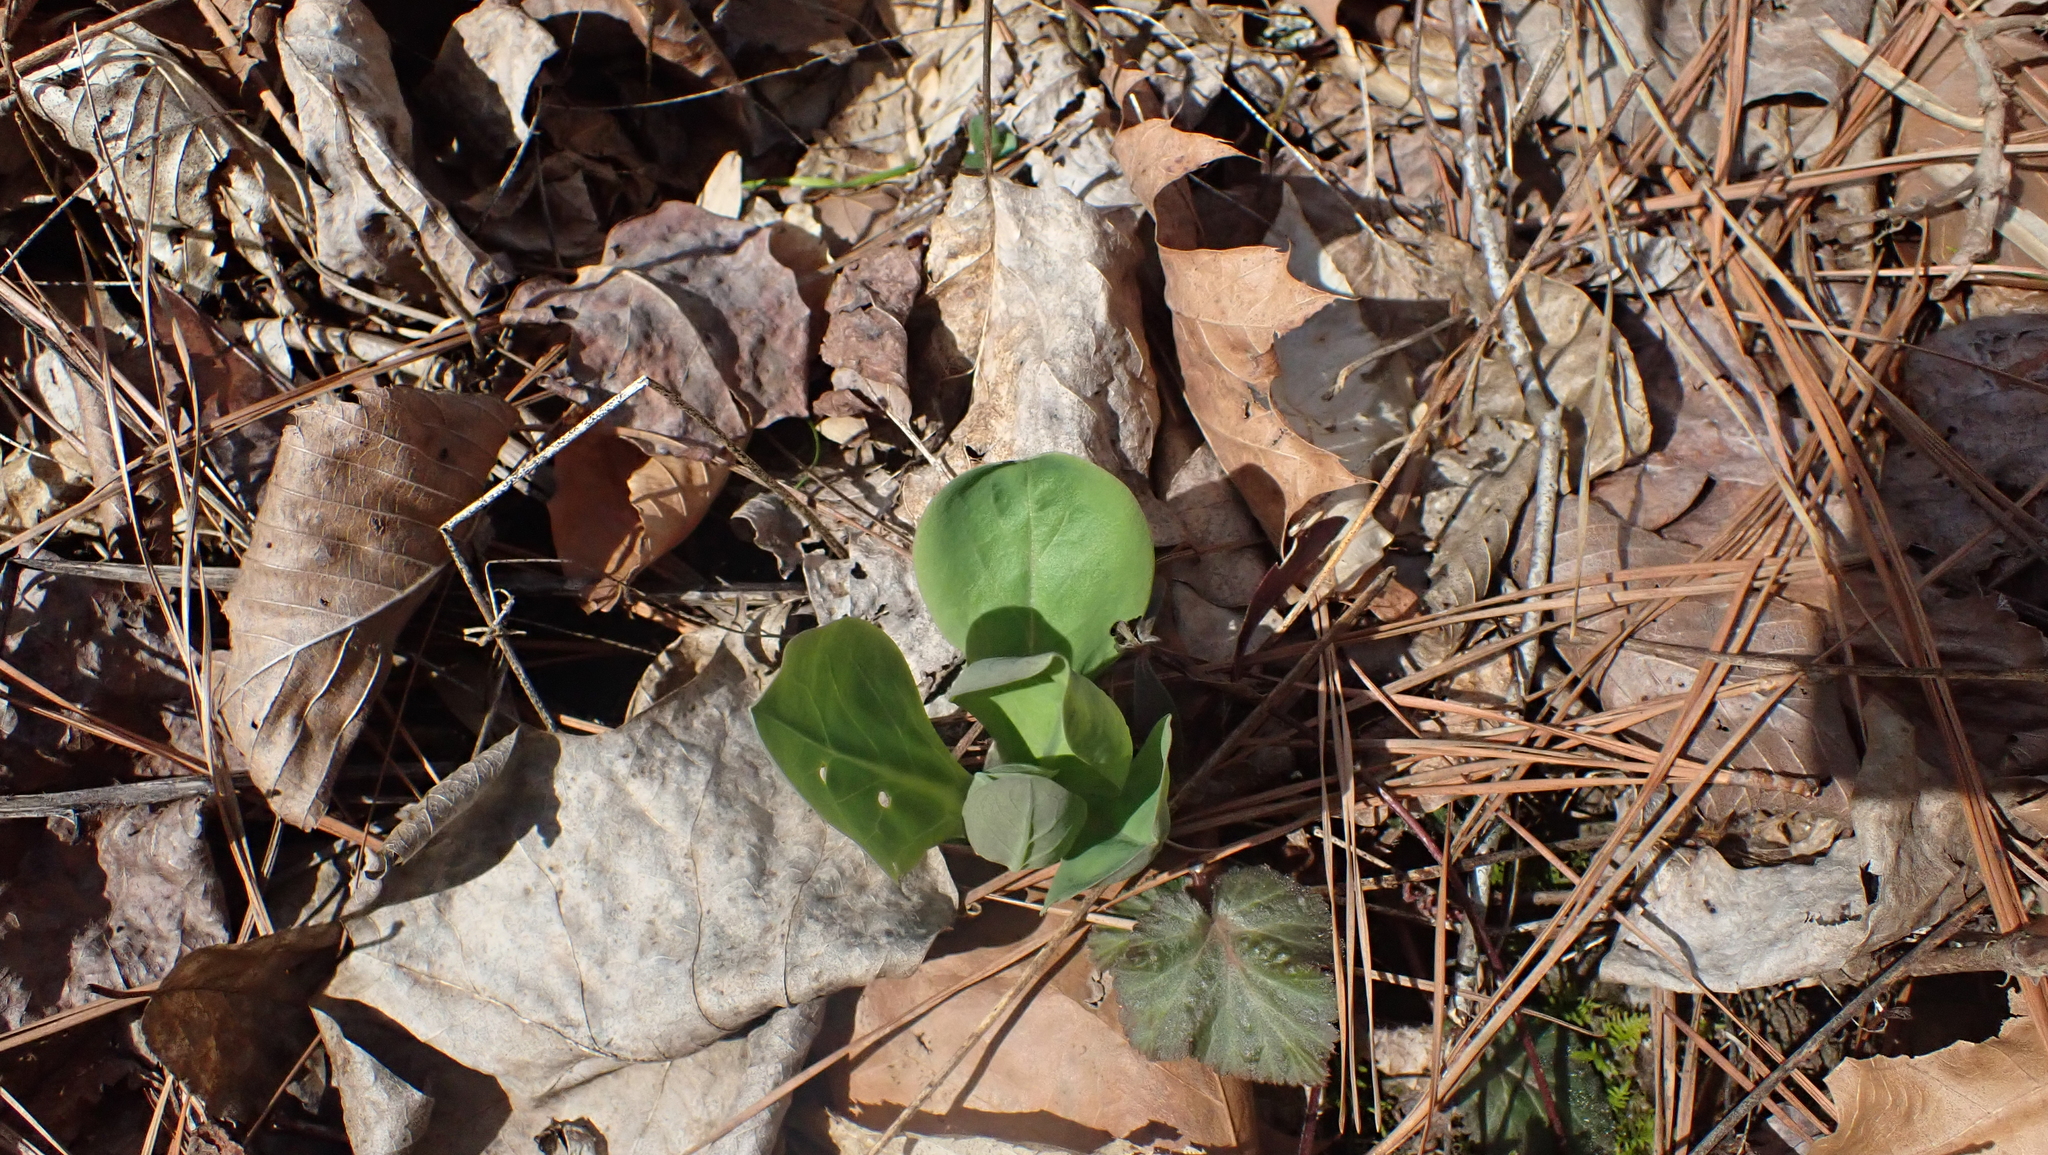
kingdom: Plantae
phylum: Tracheophyta
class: Magnoliopsida
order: Boraginales
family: Boraginaceae
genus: Mertensia
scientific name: Mertensia virginica
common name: Virginia bluebells
